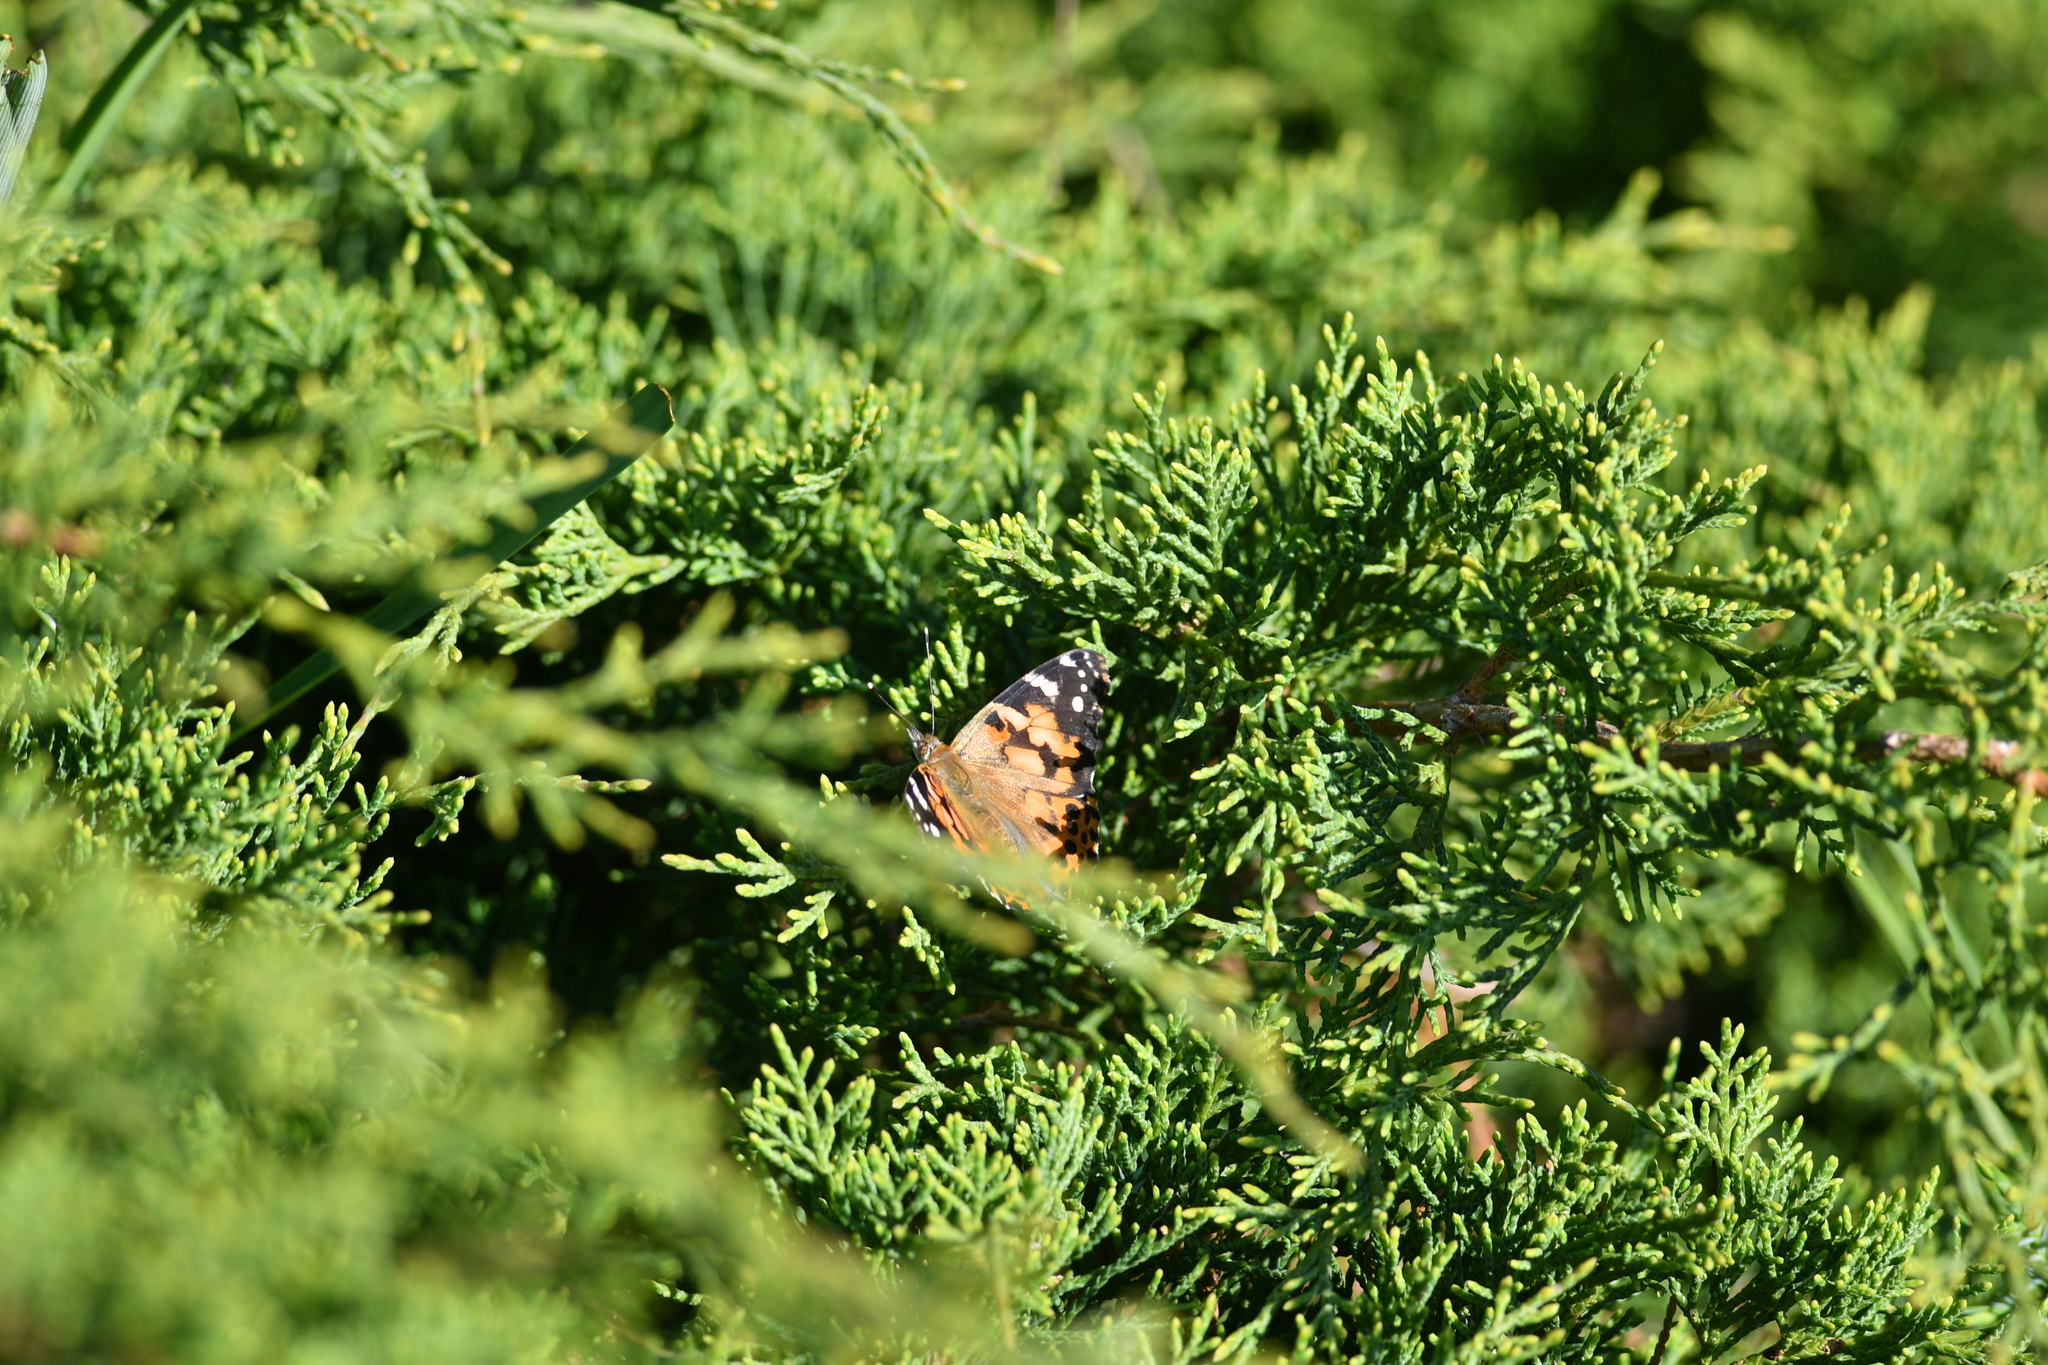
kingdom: Animalia
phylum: Arthropoda
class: Insecta
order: Lepidoptera
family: Nymphalidae
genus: Vanessa
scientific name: Vanessa cardui
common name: Painted lady
